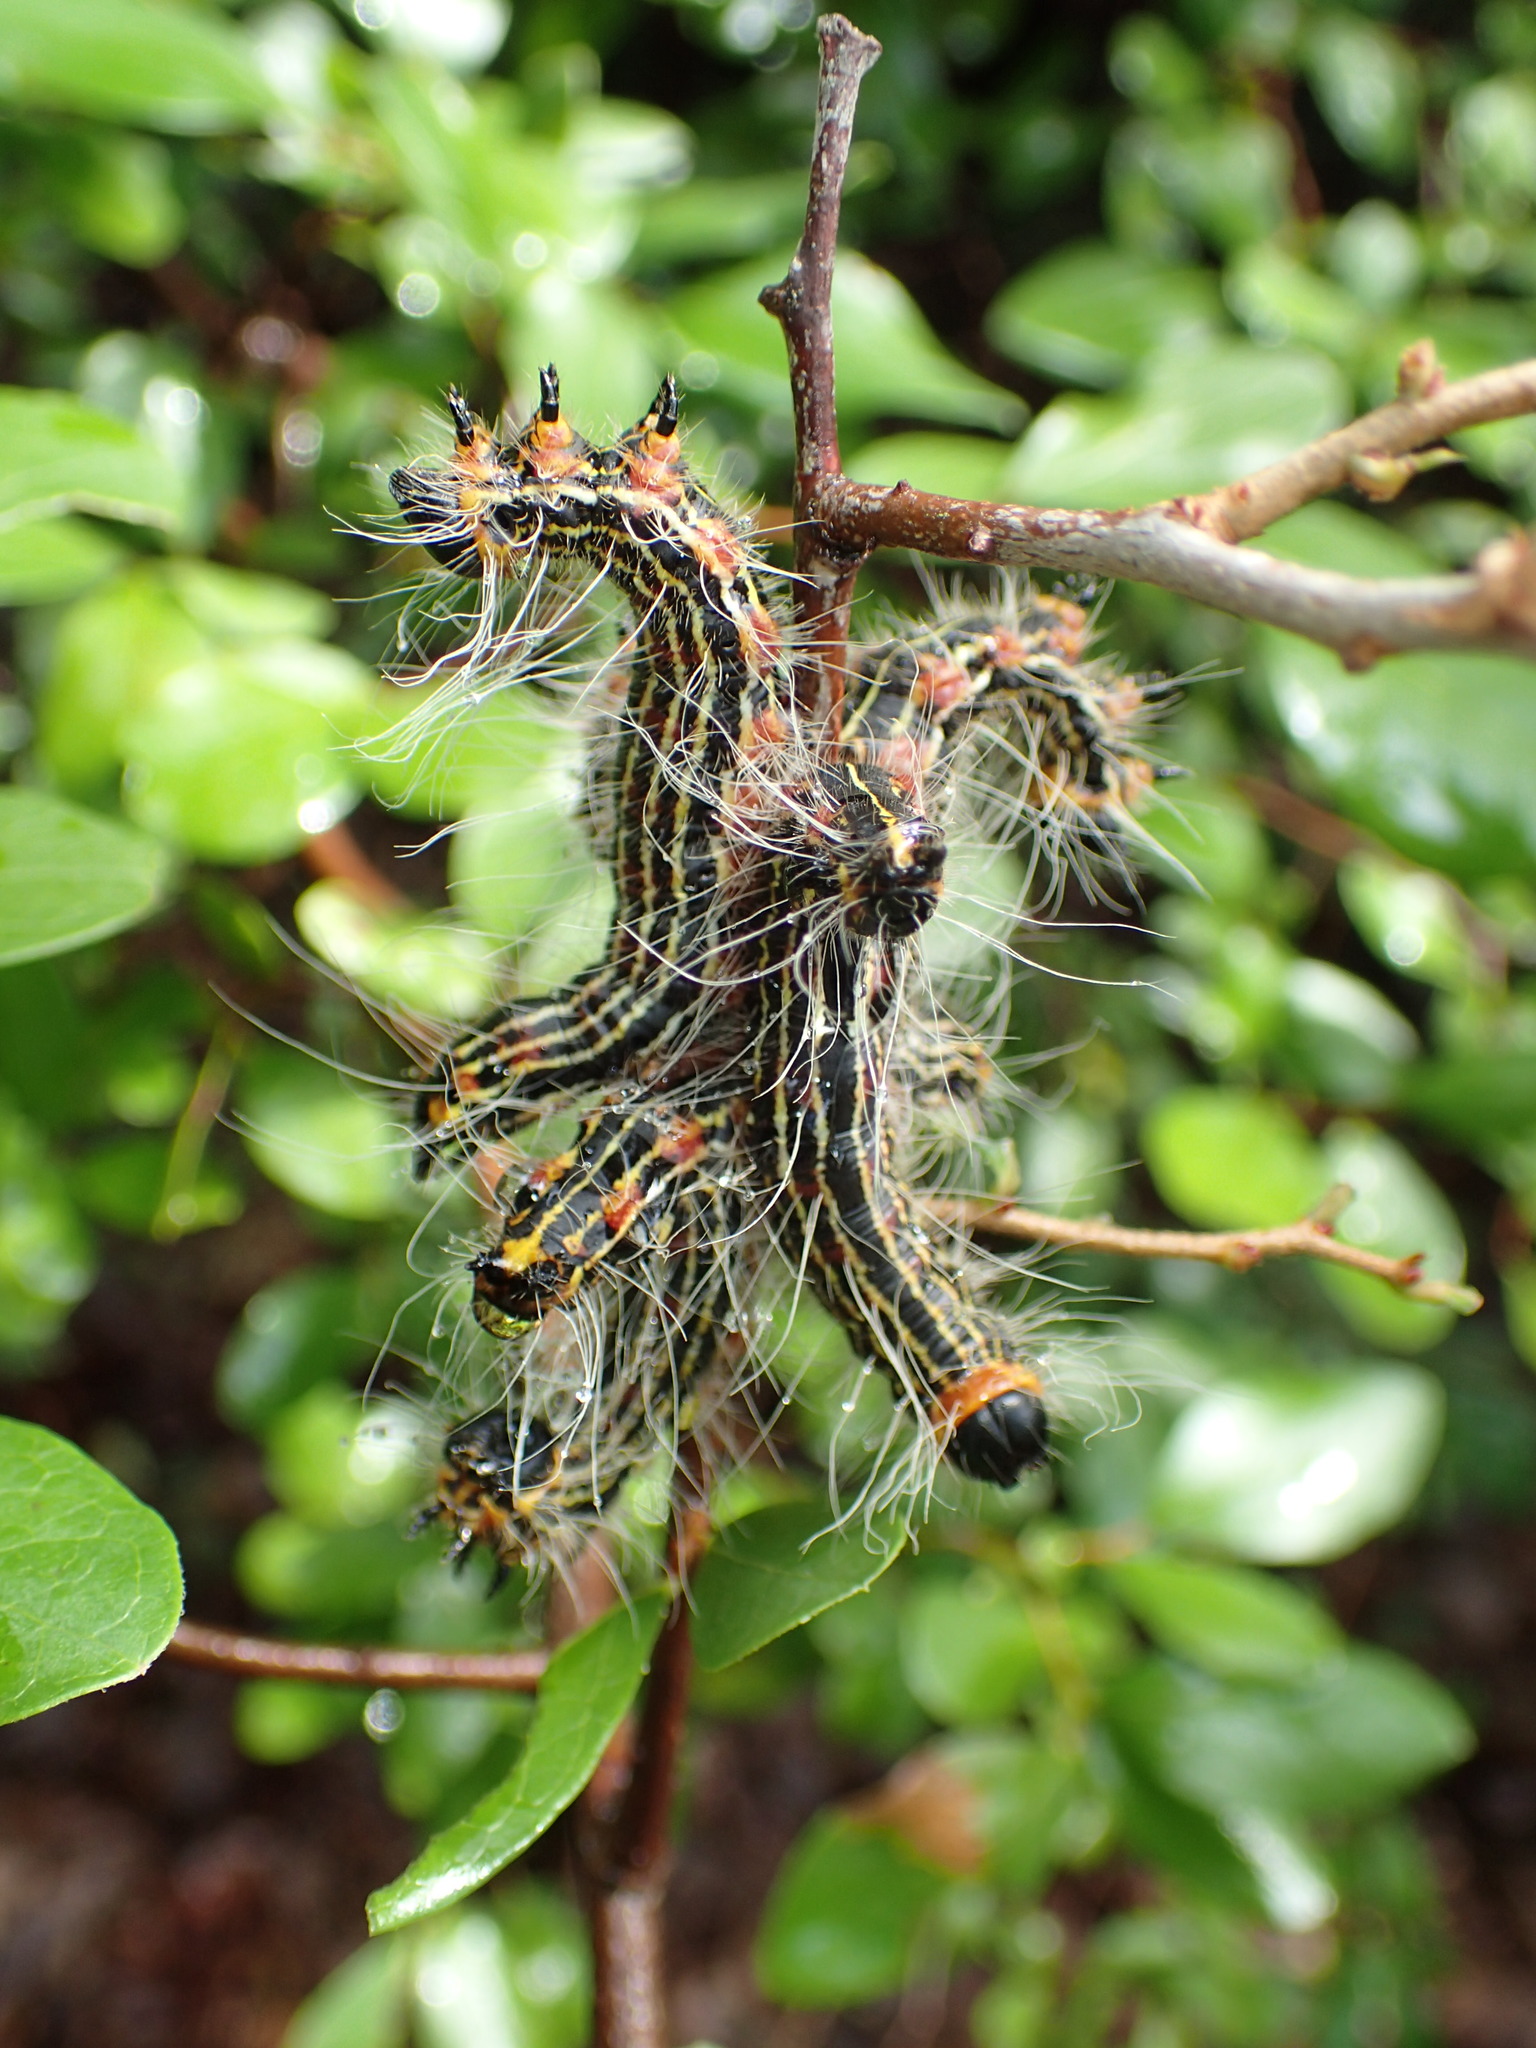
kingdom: Animalia
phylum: Arthropoda
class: Insecta
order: Lepidoptera
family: Notodontidae
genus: Datana
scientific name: Datana ministra
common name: Yellow-necked caterpillar moth
